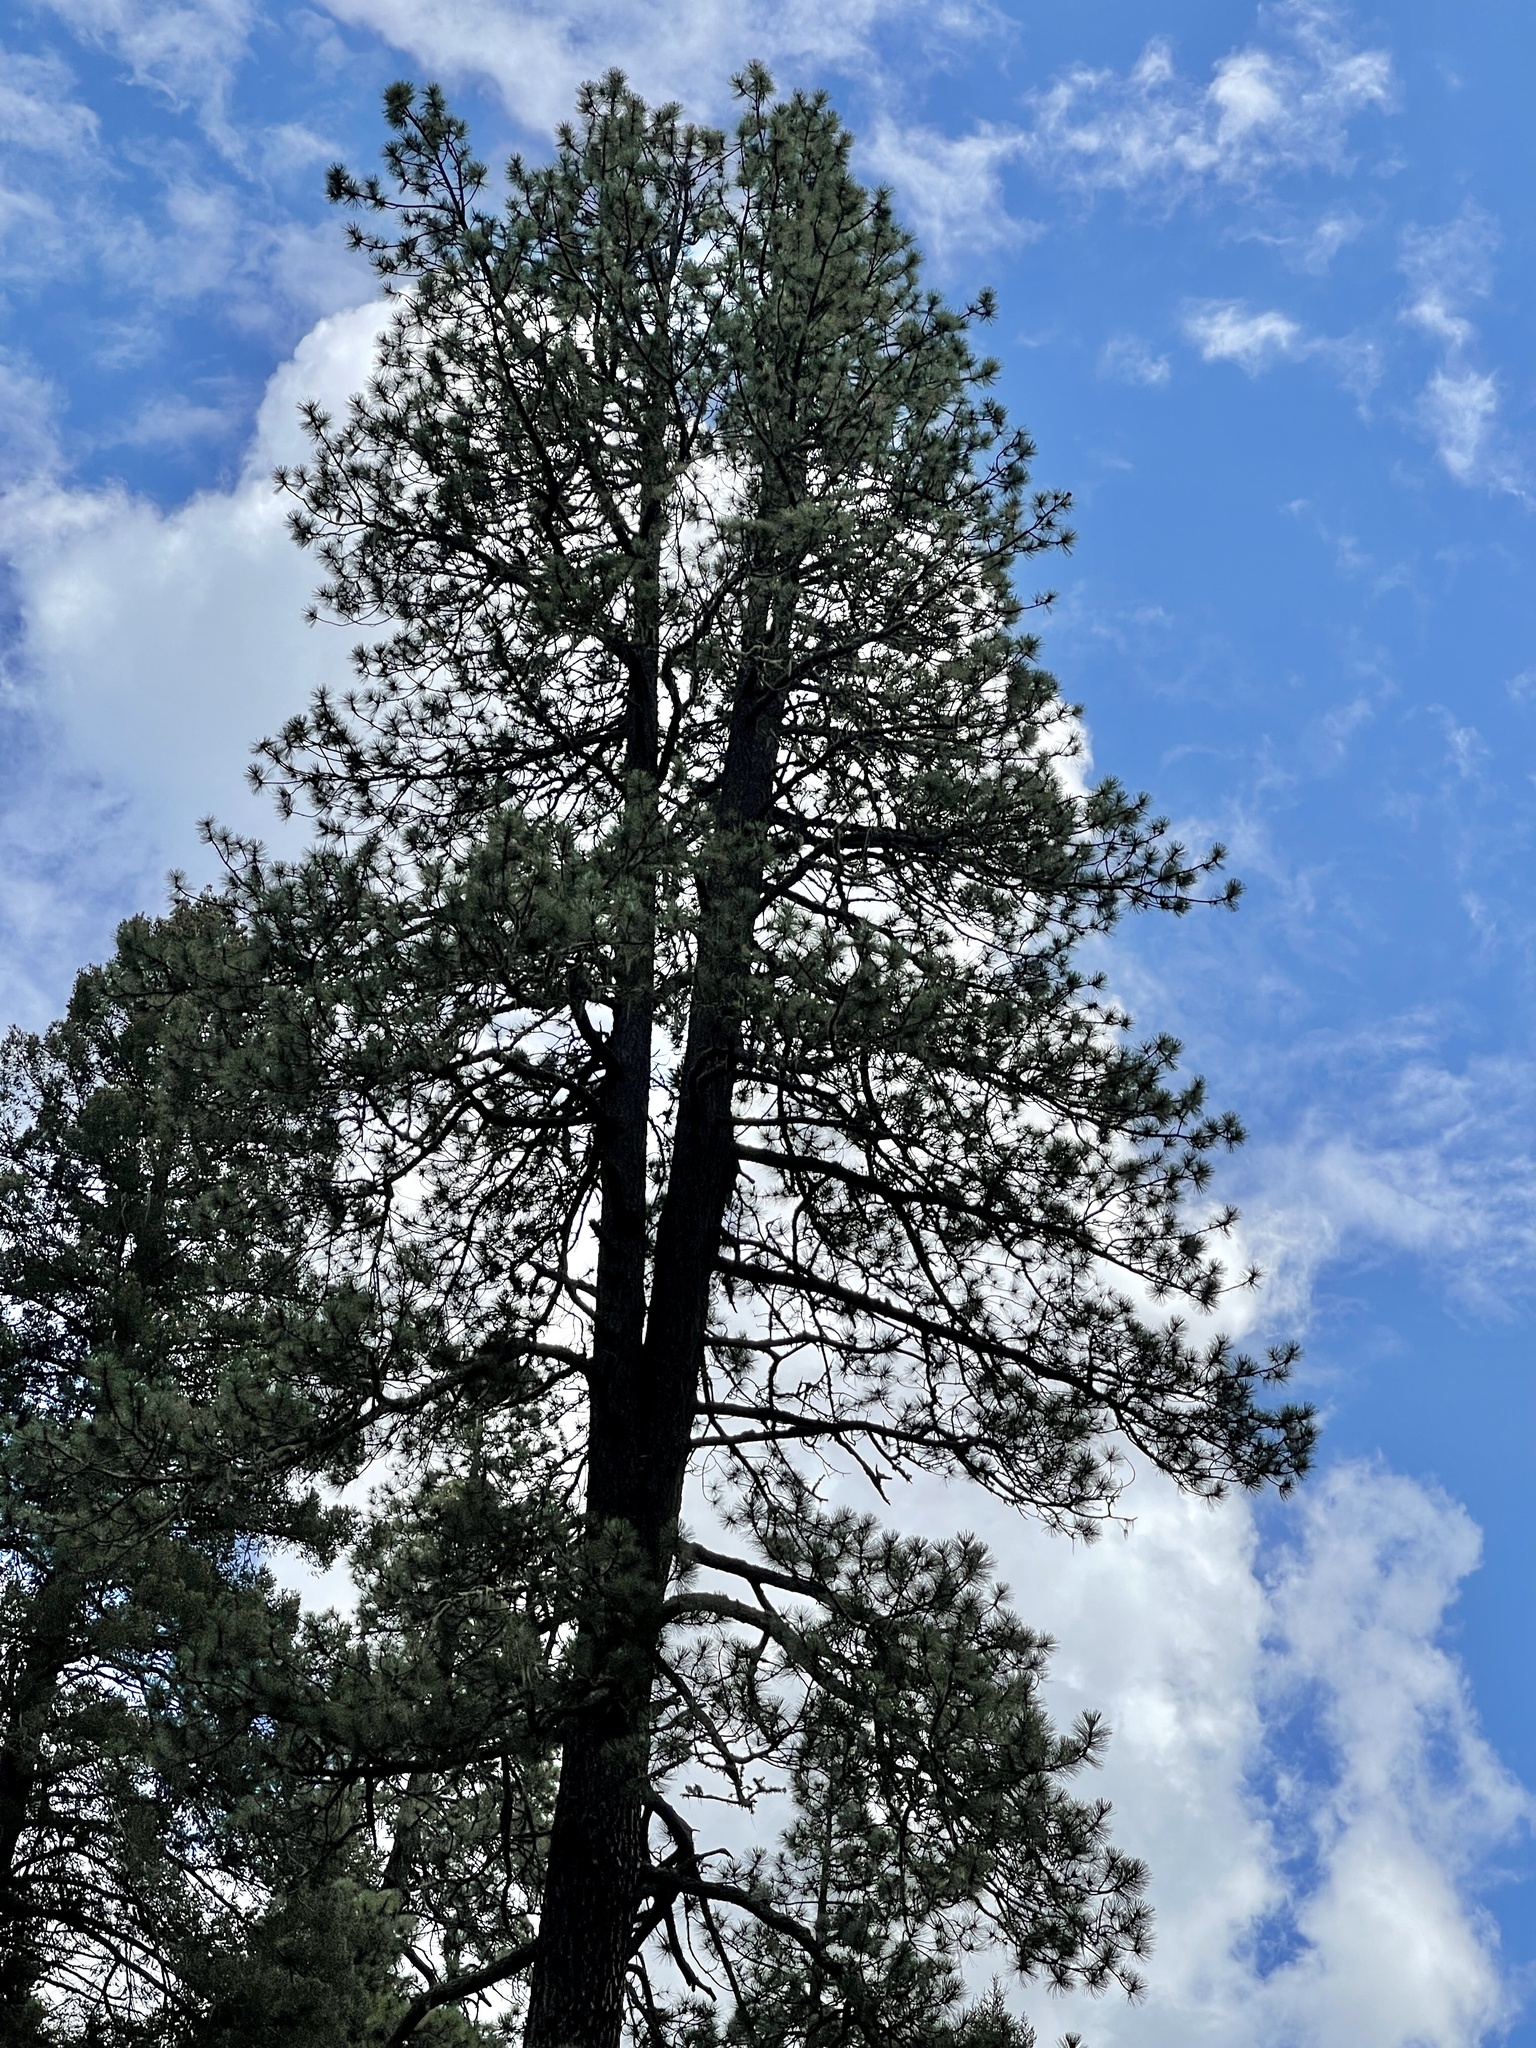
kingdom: Plantae
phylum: Tracheophyta
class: Pinopsida
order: Pinales
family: Pinaceae
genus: Pinus
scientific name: Pinus ponderosa
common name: Western yellow-pine
